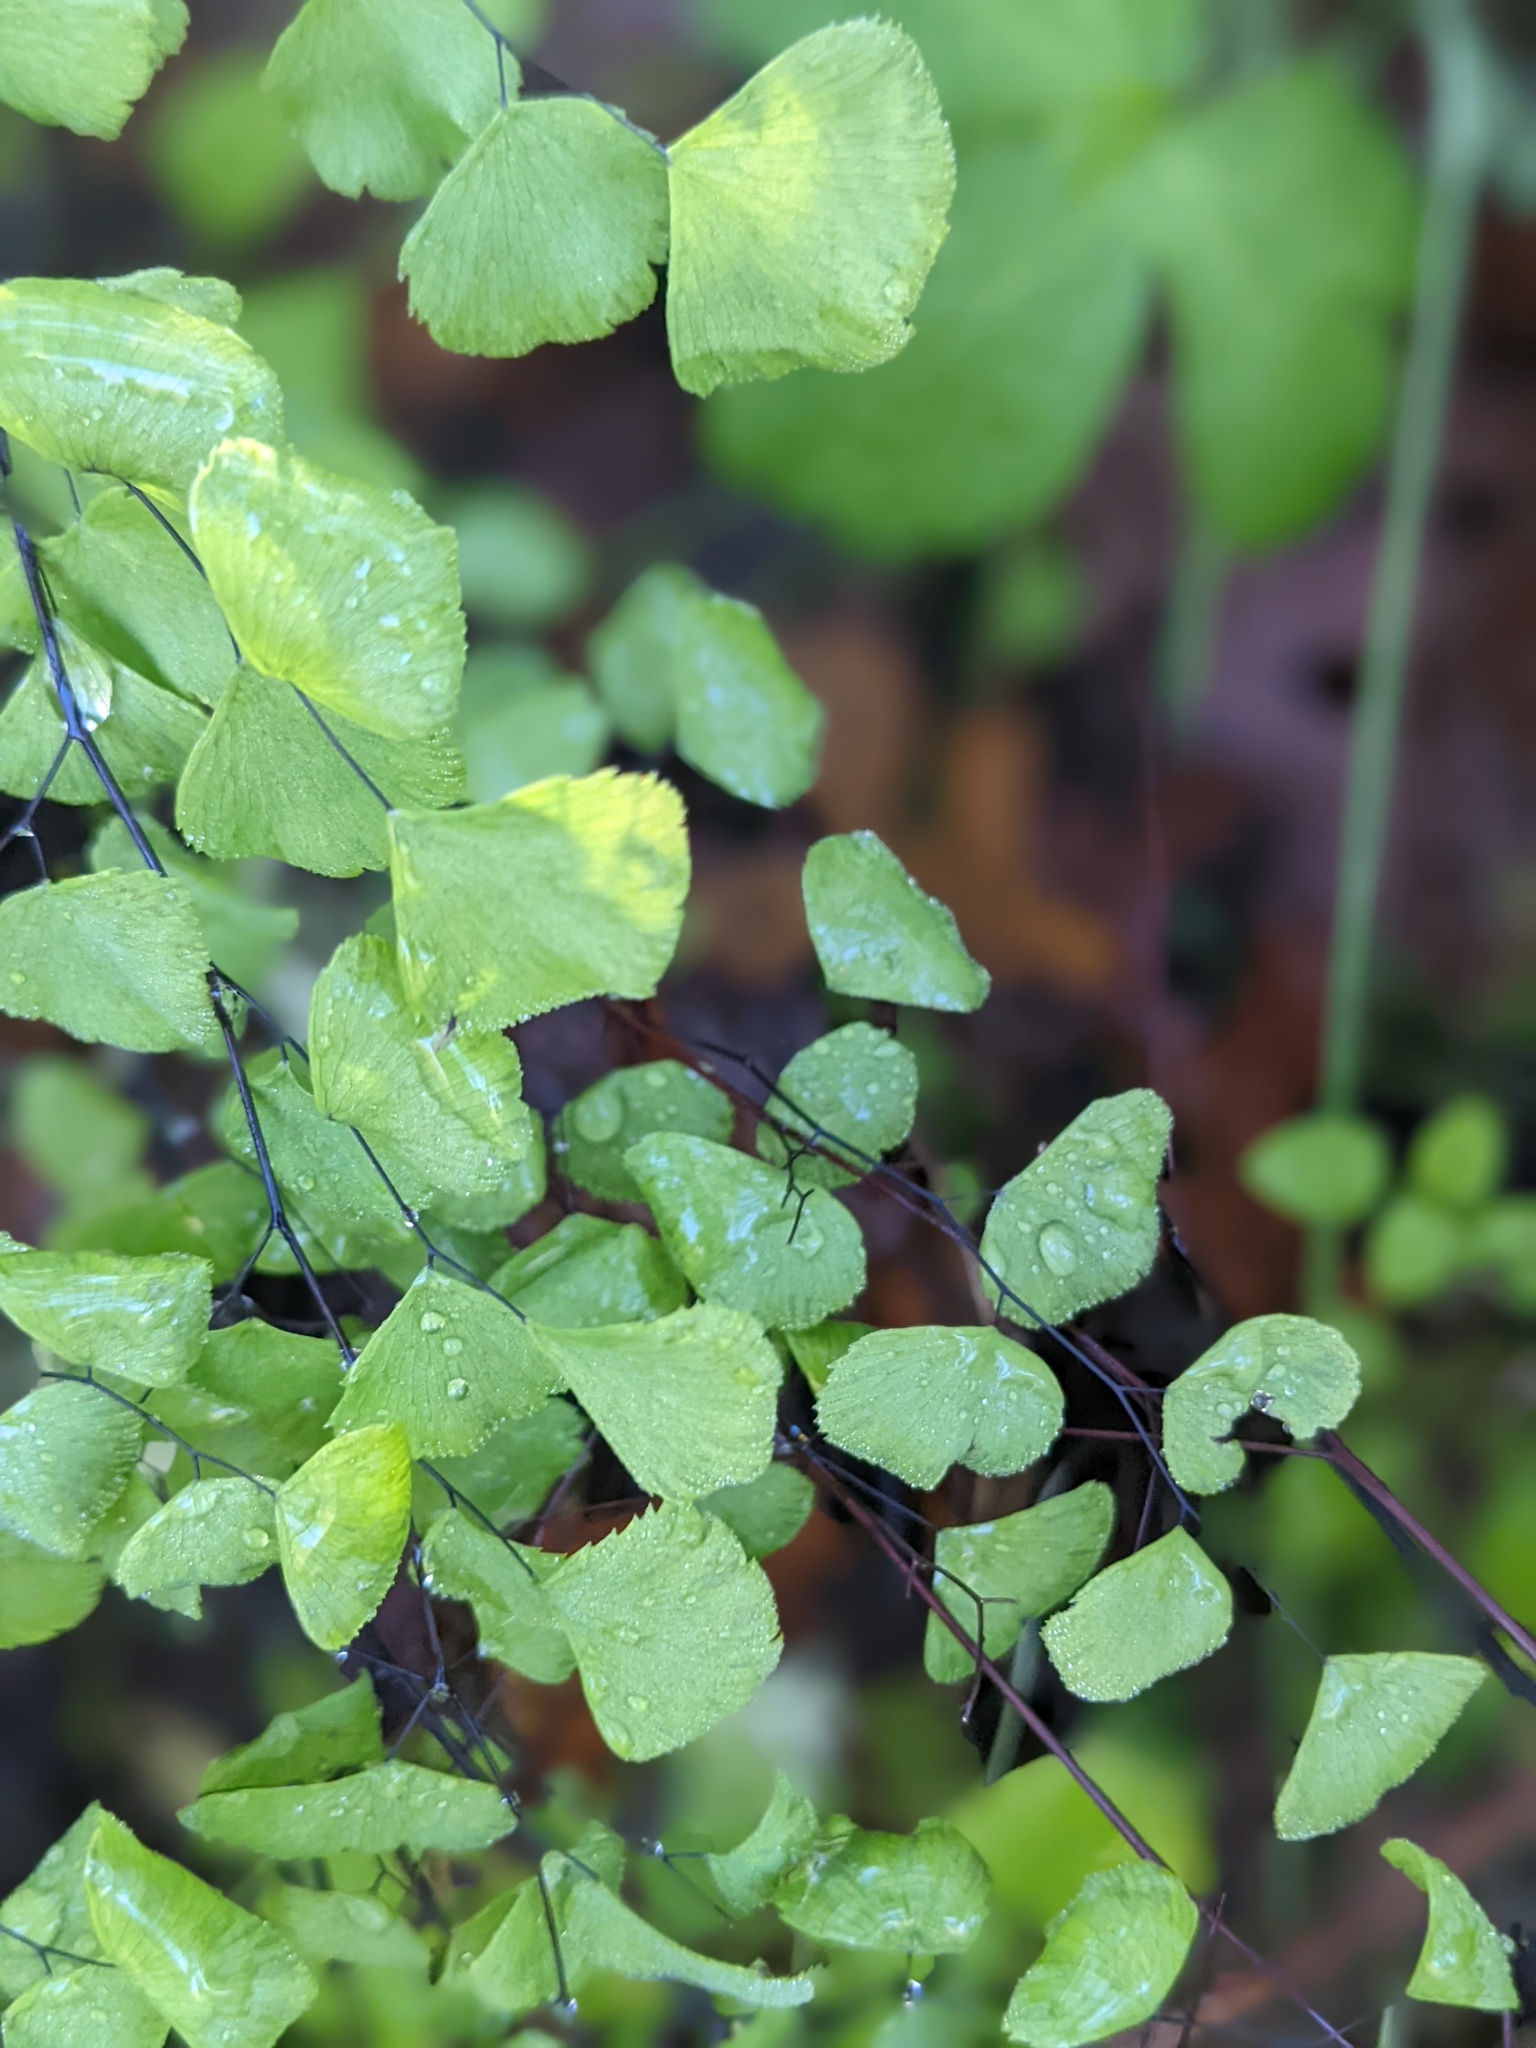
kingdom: Plantae
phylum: Tracheophyta
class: Polypodiopsida
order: Polypodiales
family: Pteridaceae
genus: Adiantum
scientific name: Adiantum jordanii
